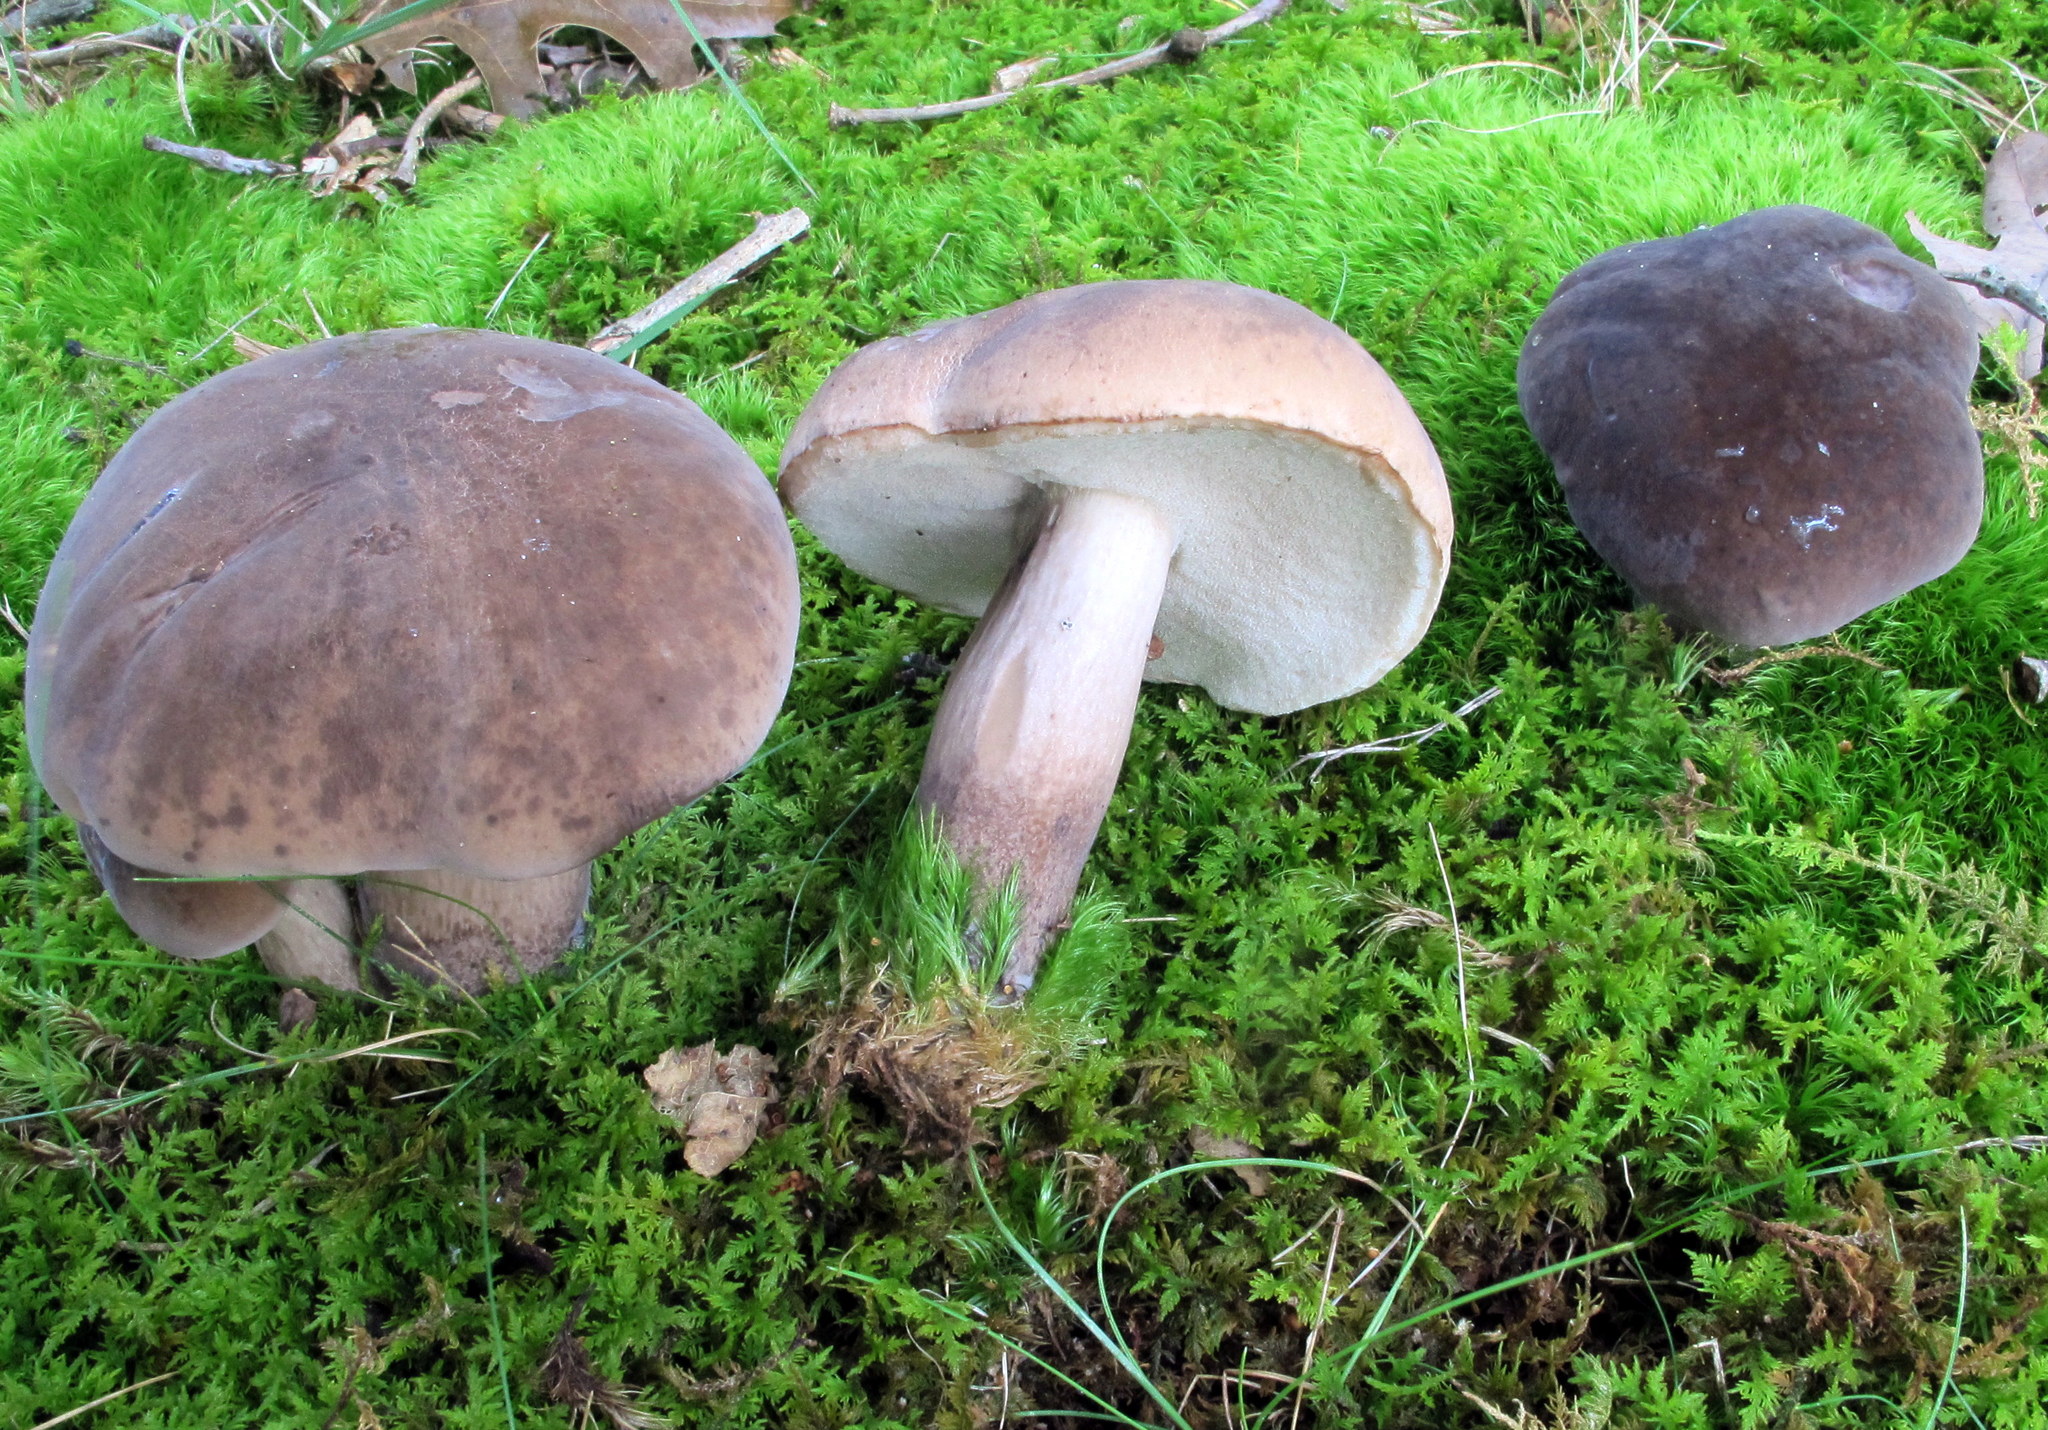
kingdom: Fungi
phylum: Basidiomycota
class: Agaricomycetes
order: Boletales
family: Boletaceae
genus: Tylopilus
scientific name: Tylopilus alboater
